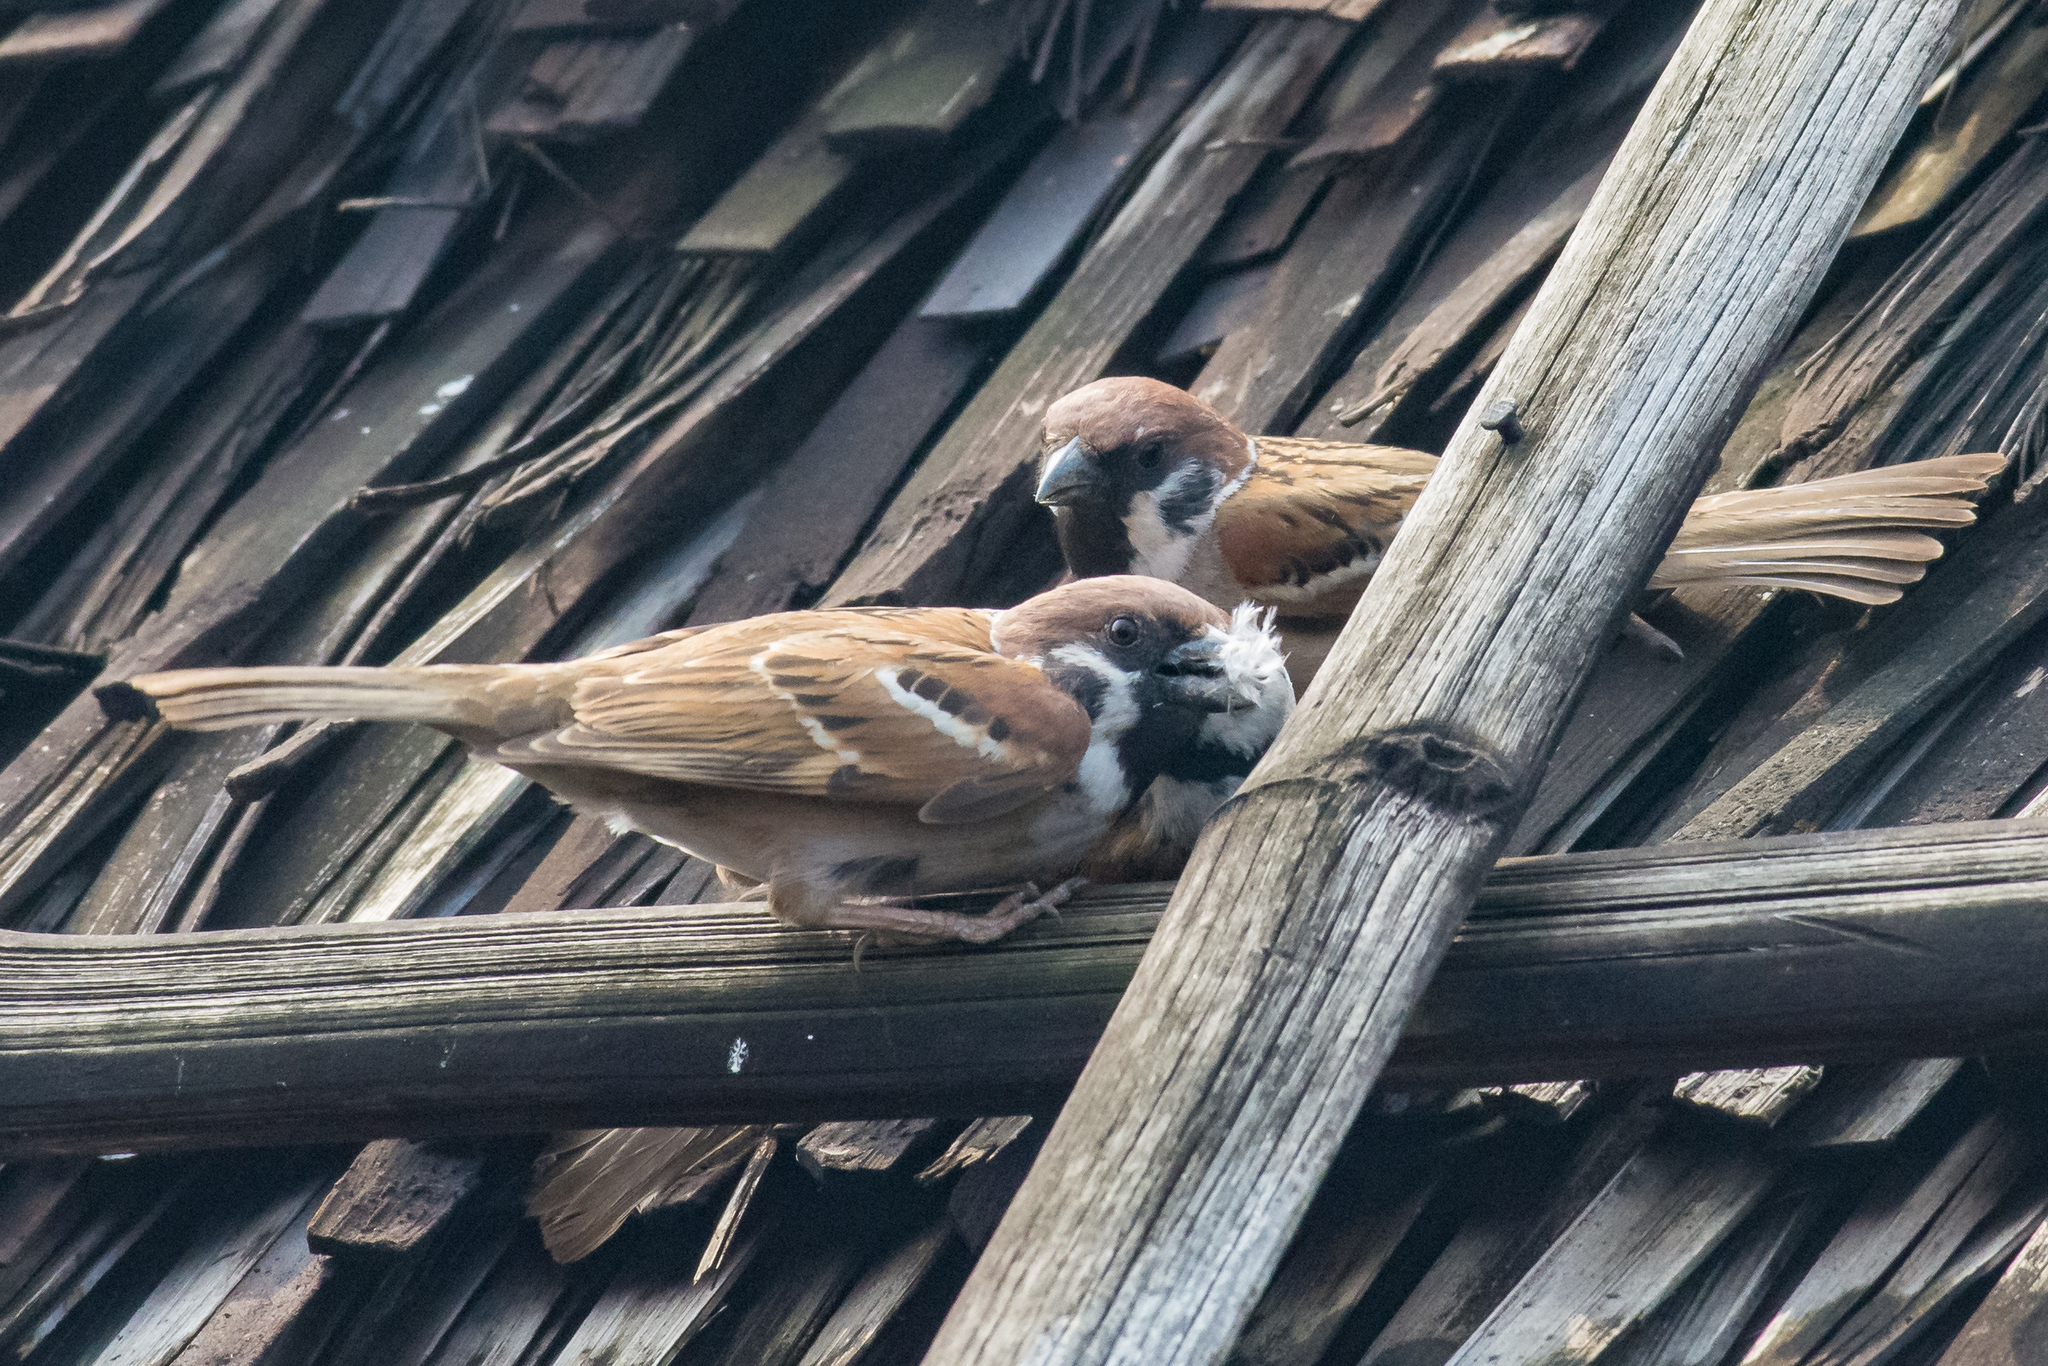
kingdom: Animalia
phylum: Chordata
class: Aves
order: Passeriformes
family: Passeridae
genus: Passer
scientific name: Passer montanus
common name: Eurasian tree sparrow
